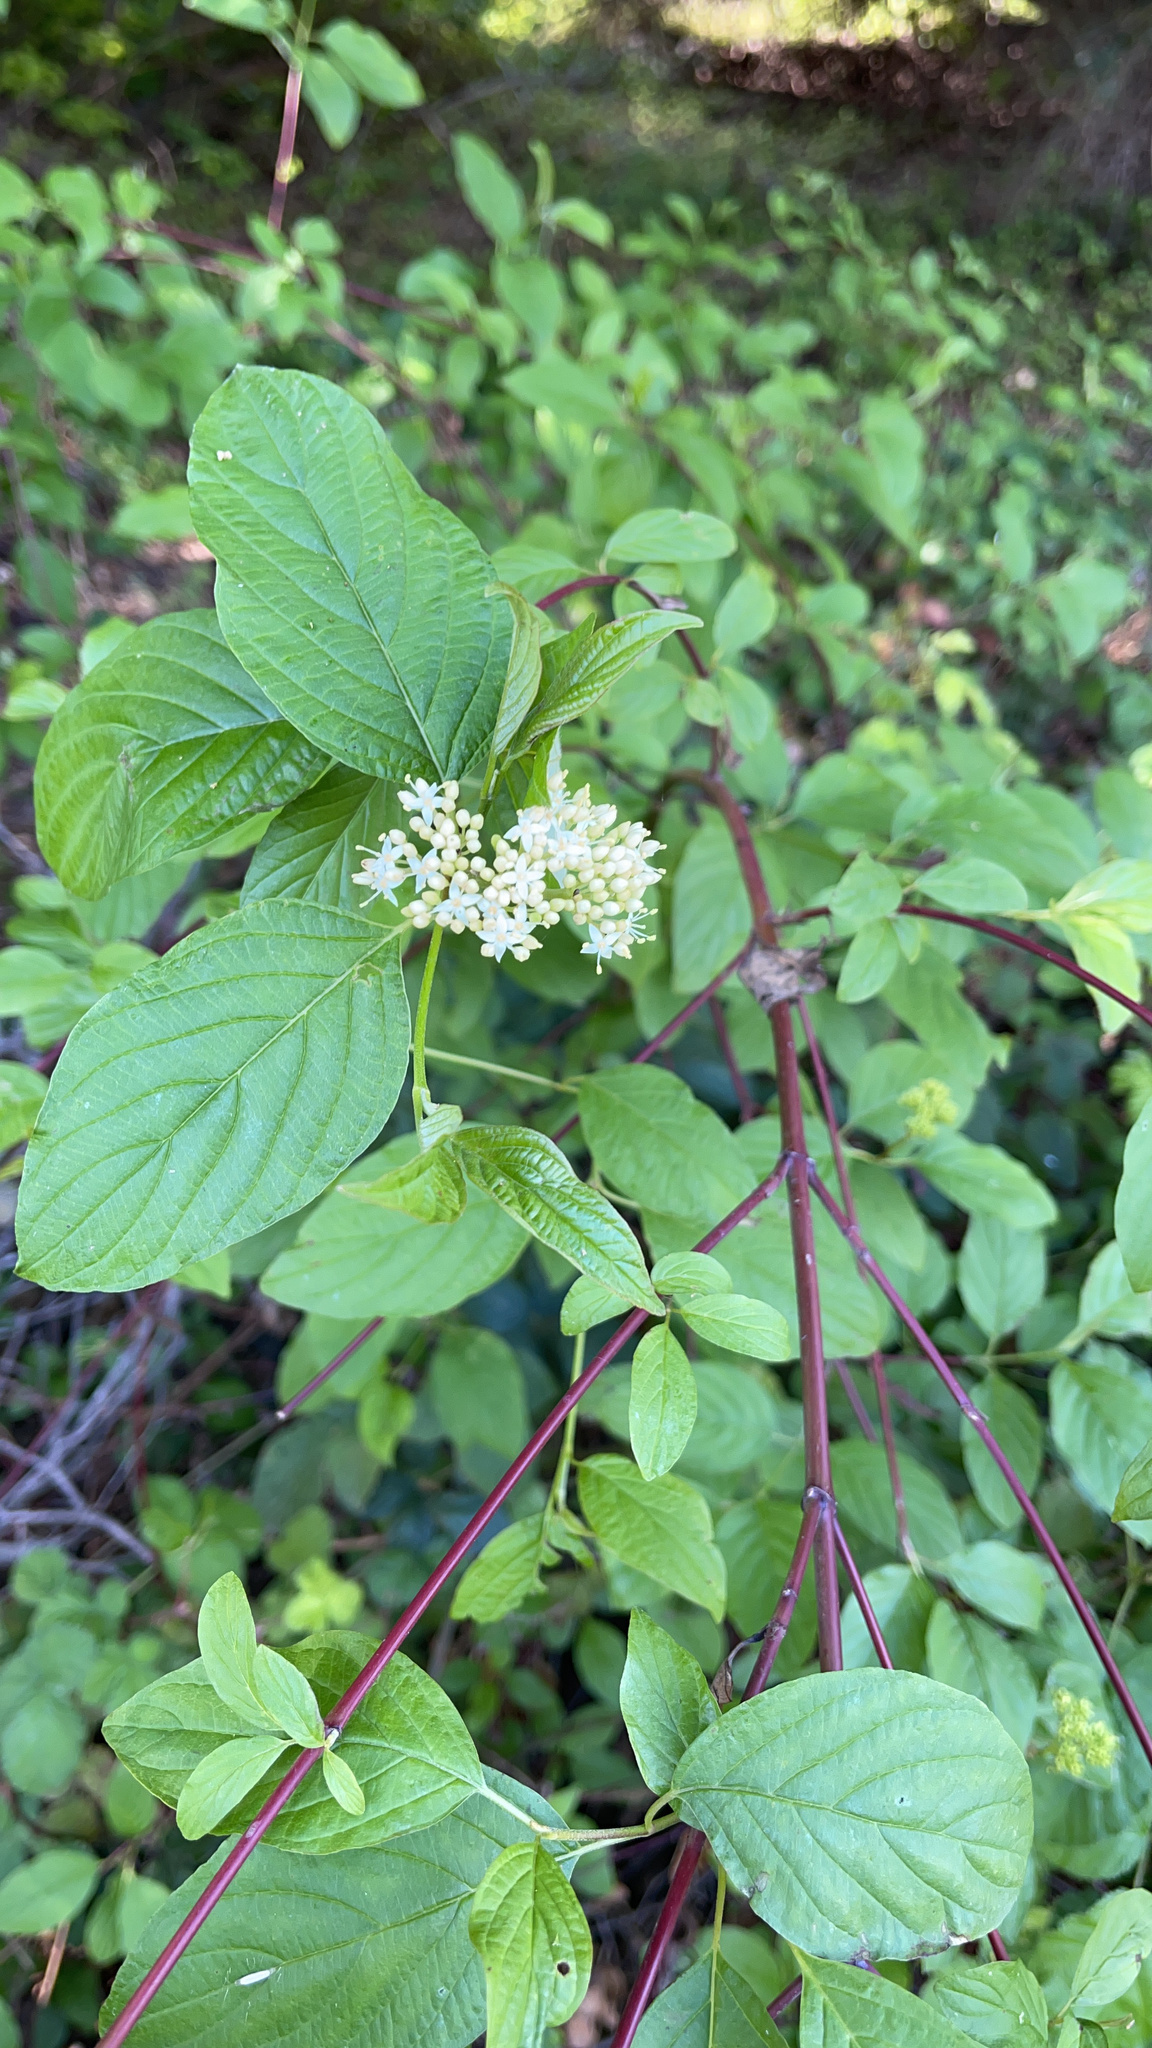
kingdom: Plantae
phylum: Tracheophyta
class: Magnoliopsida
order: Cornales
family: Cornaceae
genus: Cornus
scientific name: Cornus sericea
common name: Red-osier dogwood
